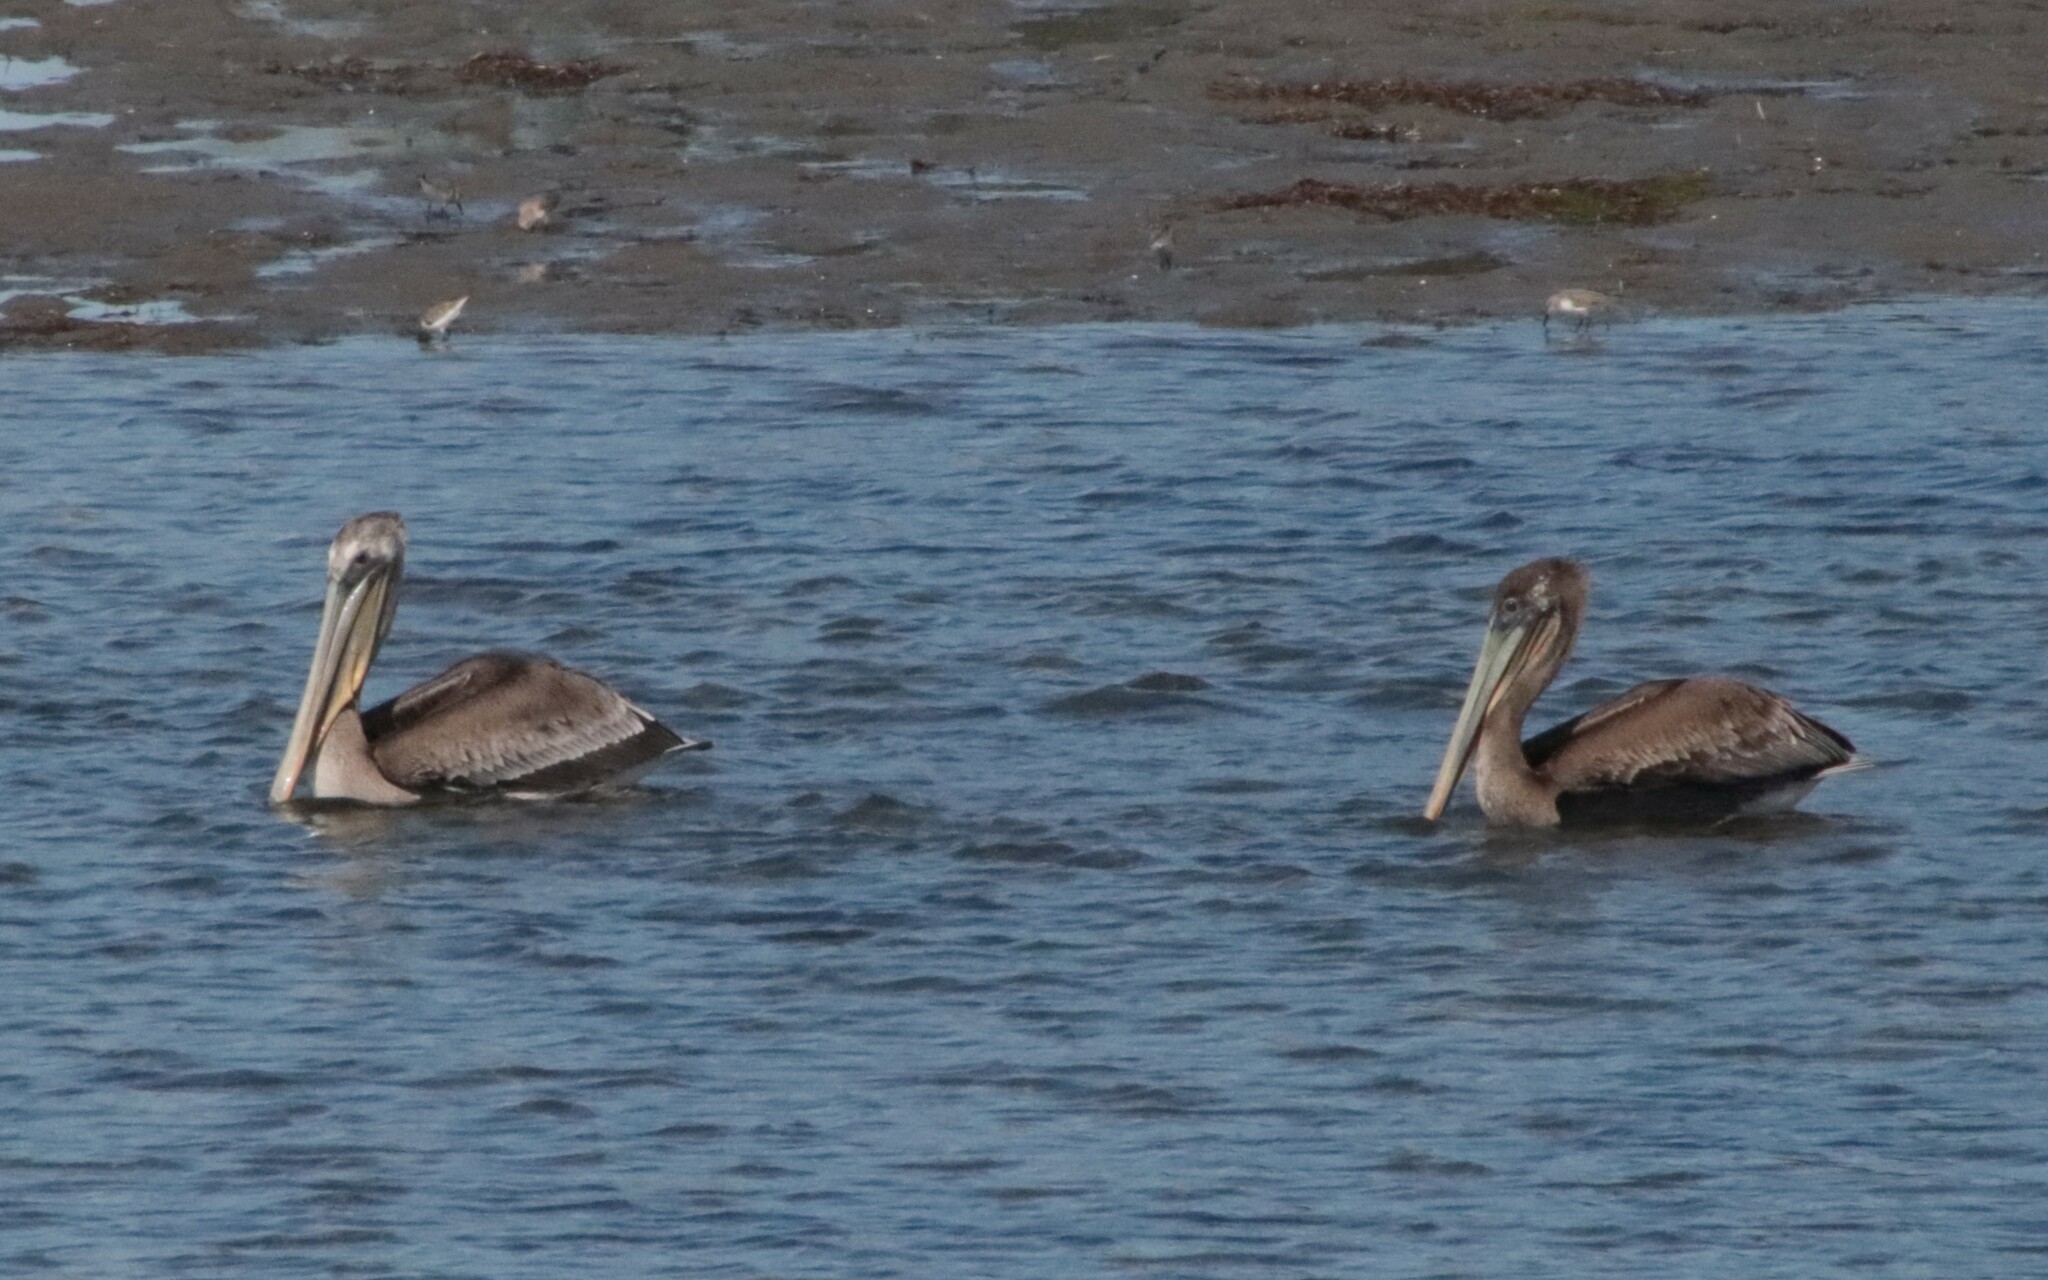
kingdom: Animalia
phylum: Chordata
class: Aves
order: Pelecaniformes
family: Pelecanidae
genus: Pelecanus
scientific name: Pelecanus occidentalis
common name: Brown pelican
